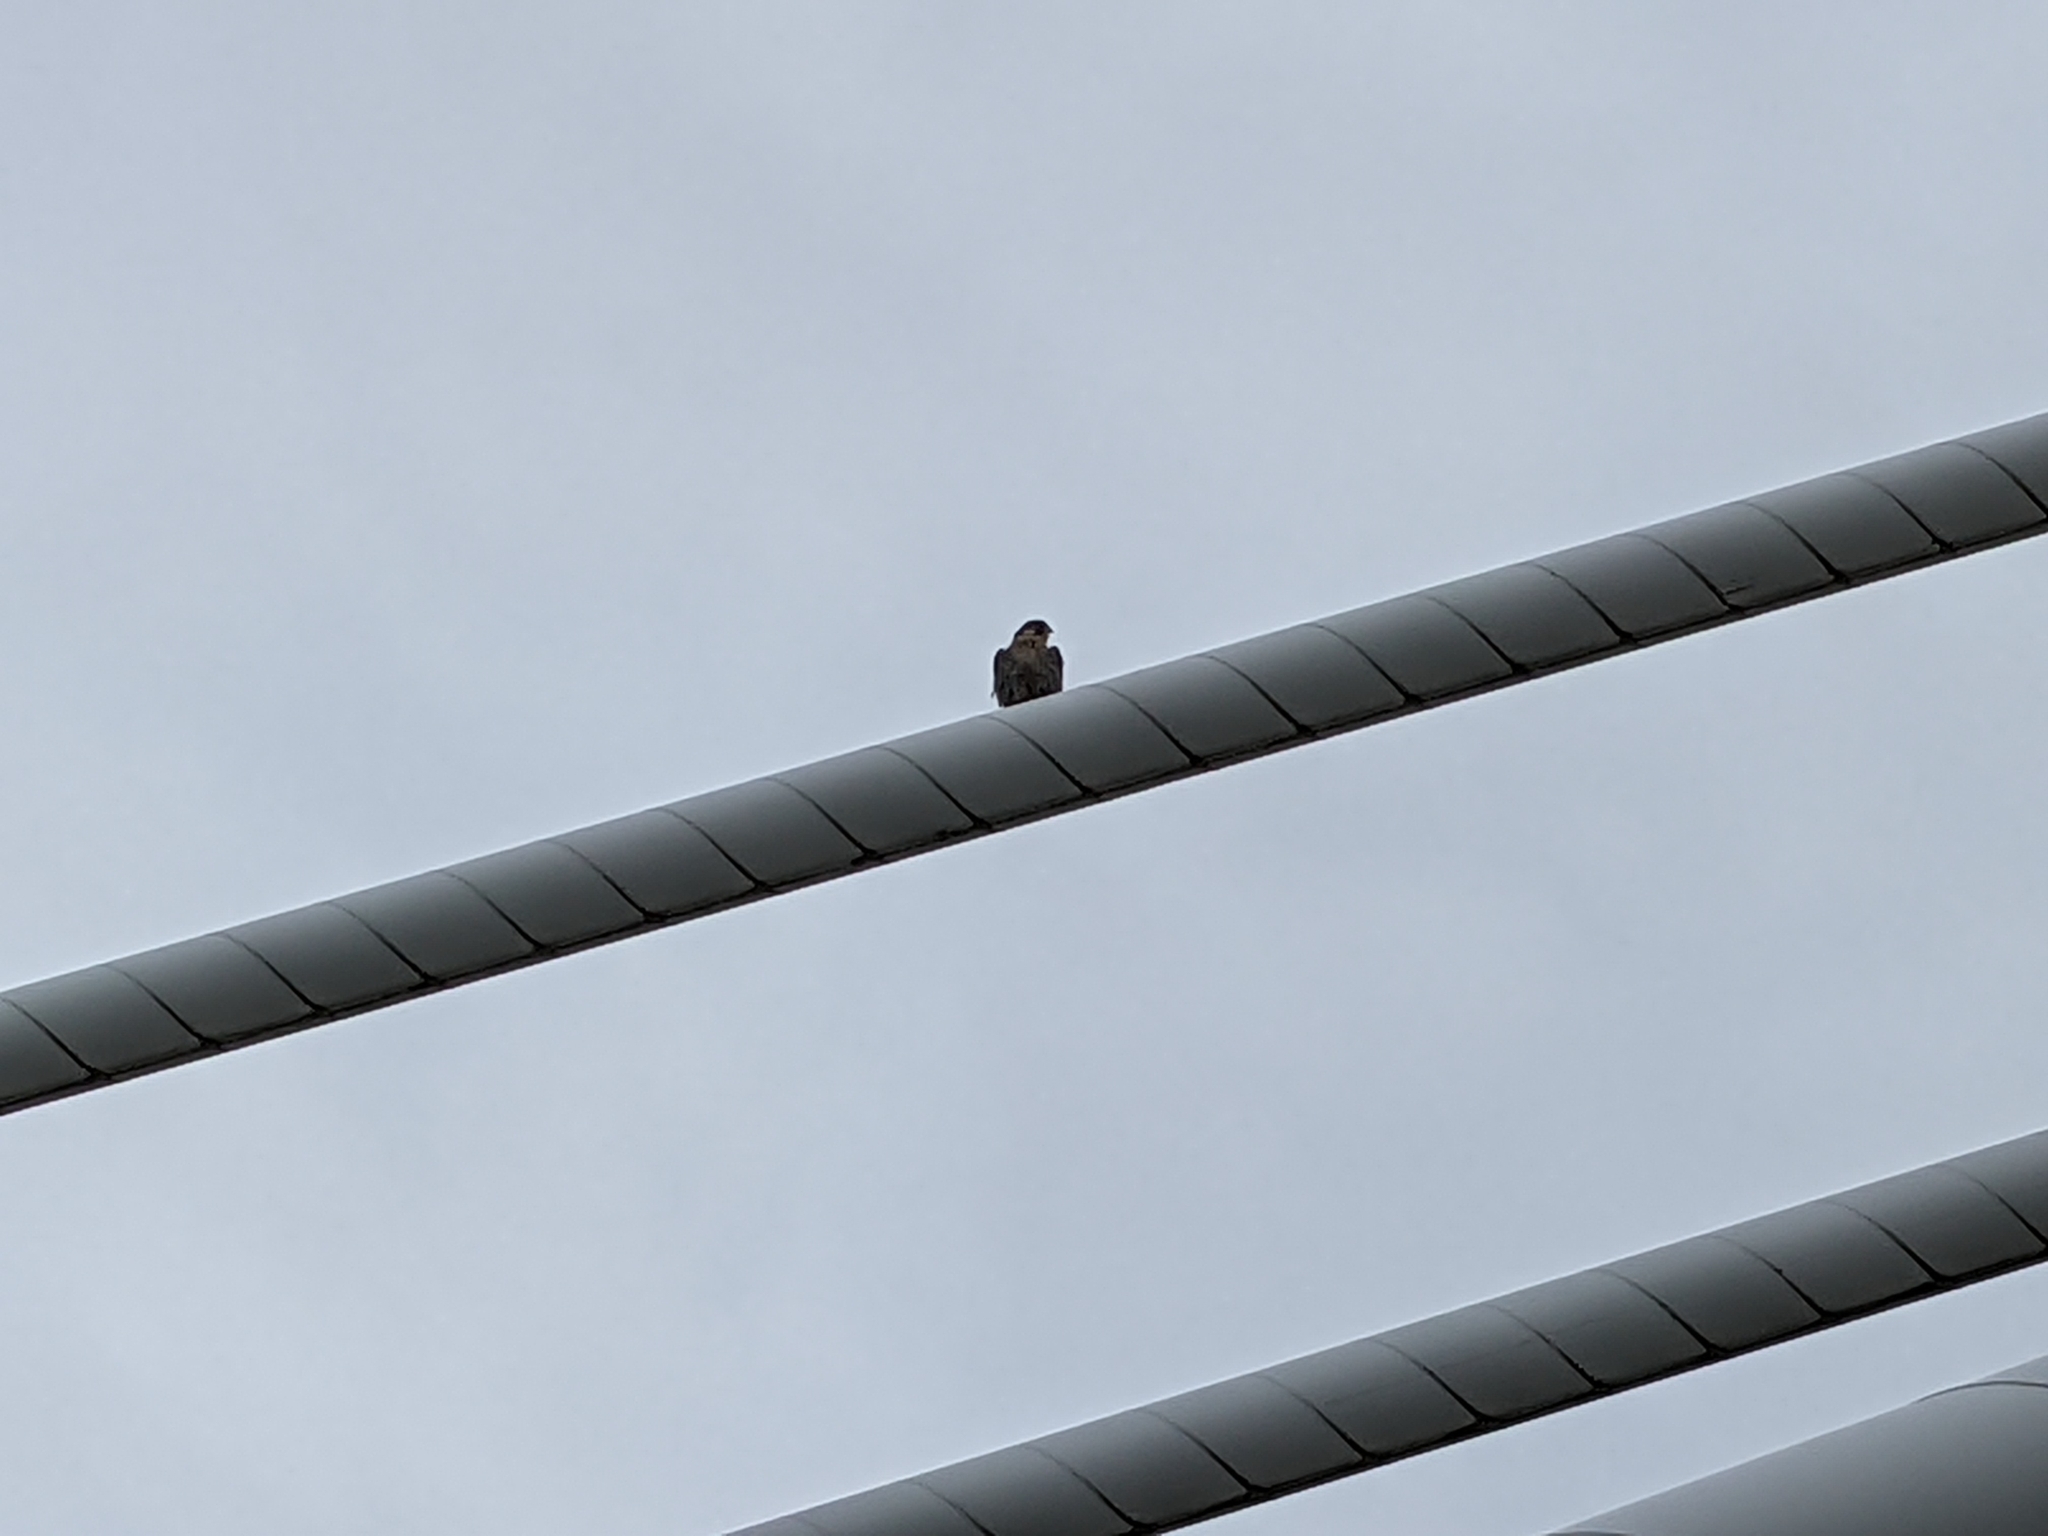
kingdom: Animalia
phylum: Chordata
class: Aves
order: Falconiformes
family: Falconidae
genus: Falco
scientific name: Falco peregrinus
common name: Peregrine falcon
